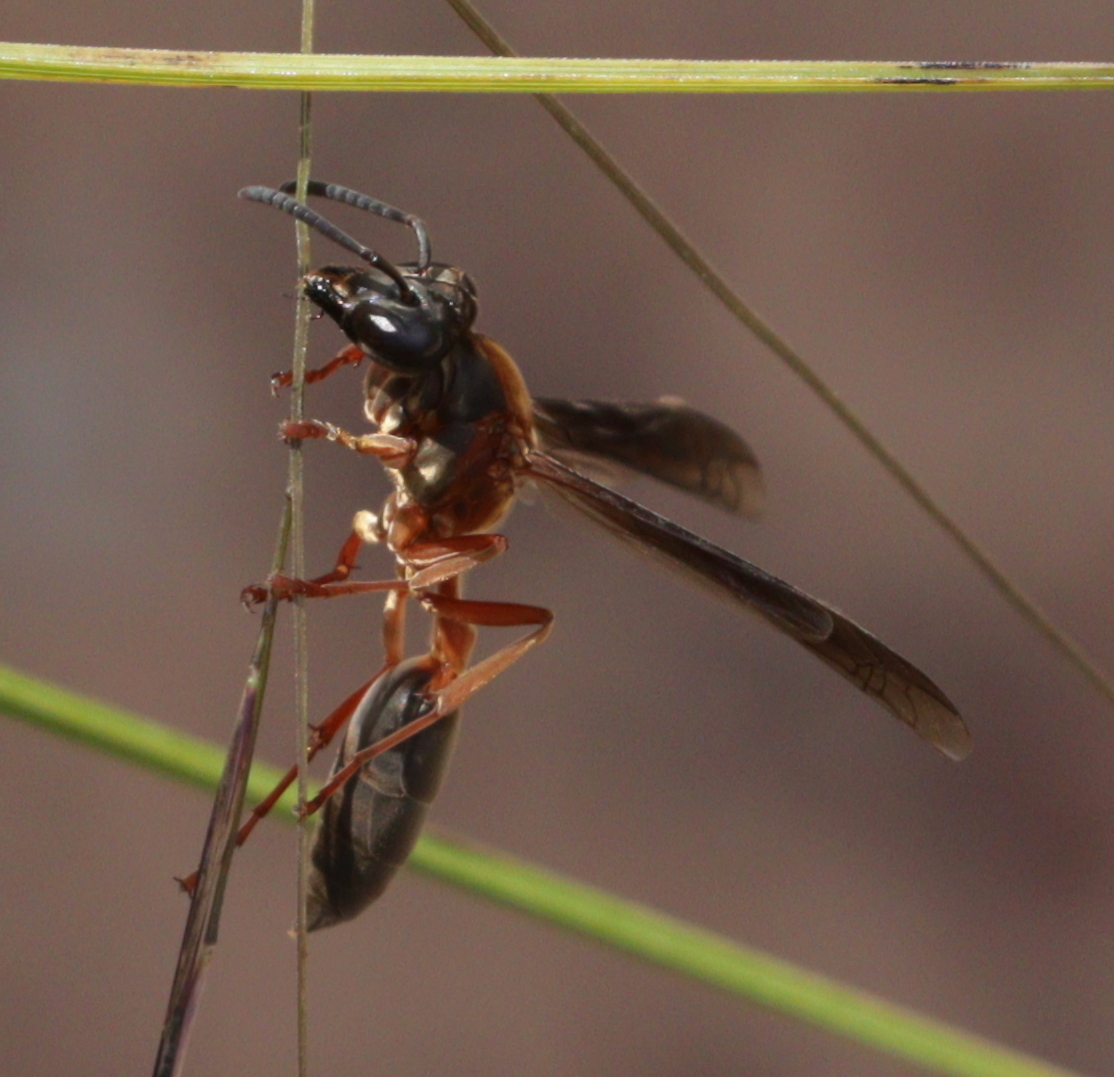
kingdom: Animalia
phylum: Arthropoda
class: Insecta
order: Hymenoptera
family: Eumenidae
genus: Polybia
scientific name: Polybia sericea
